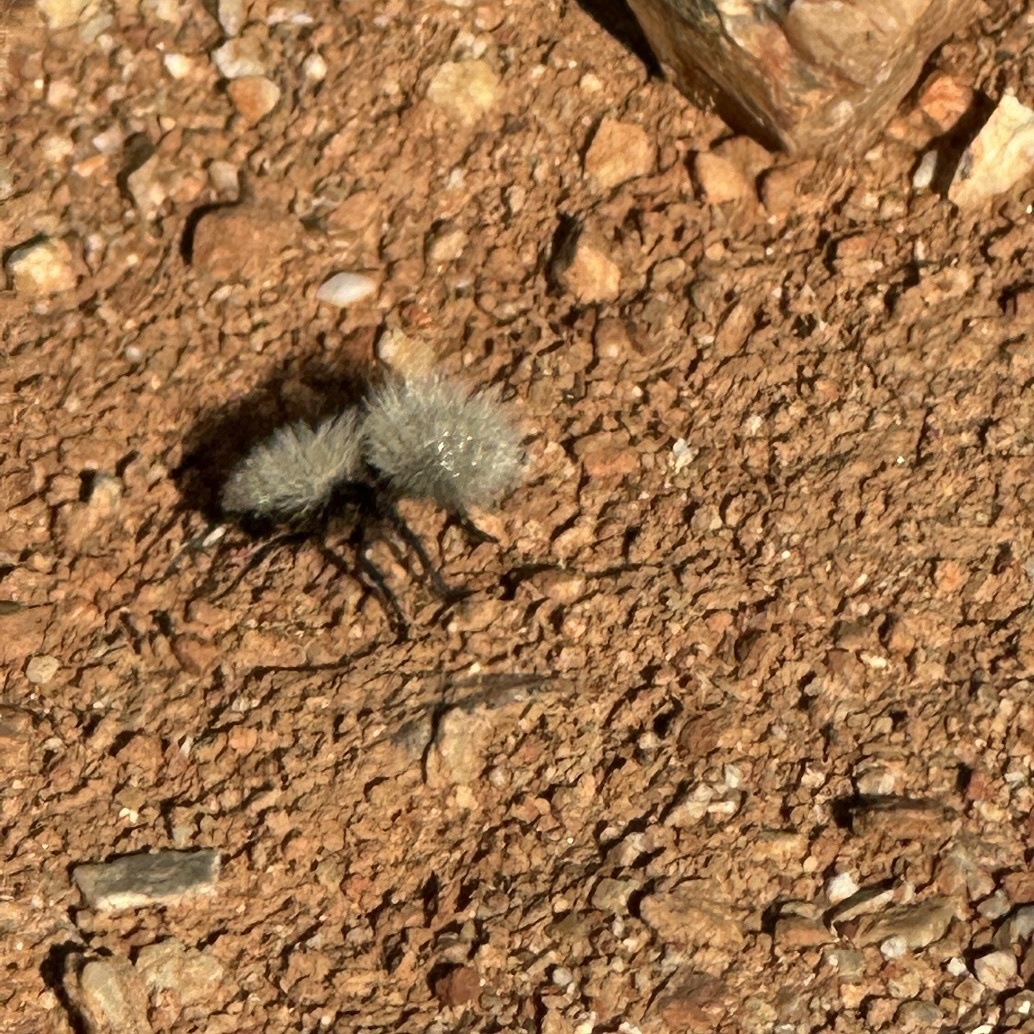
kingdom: Animalia
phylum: Arthropoda
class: Insecta
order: Hymenoptera
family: Mutillidae
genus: Dasymutilla
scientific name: Dasymutilla
